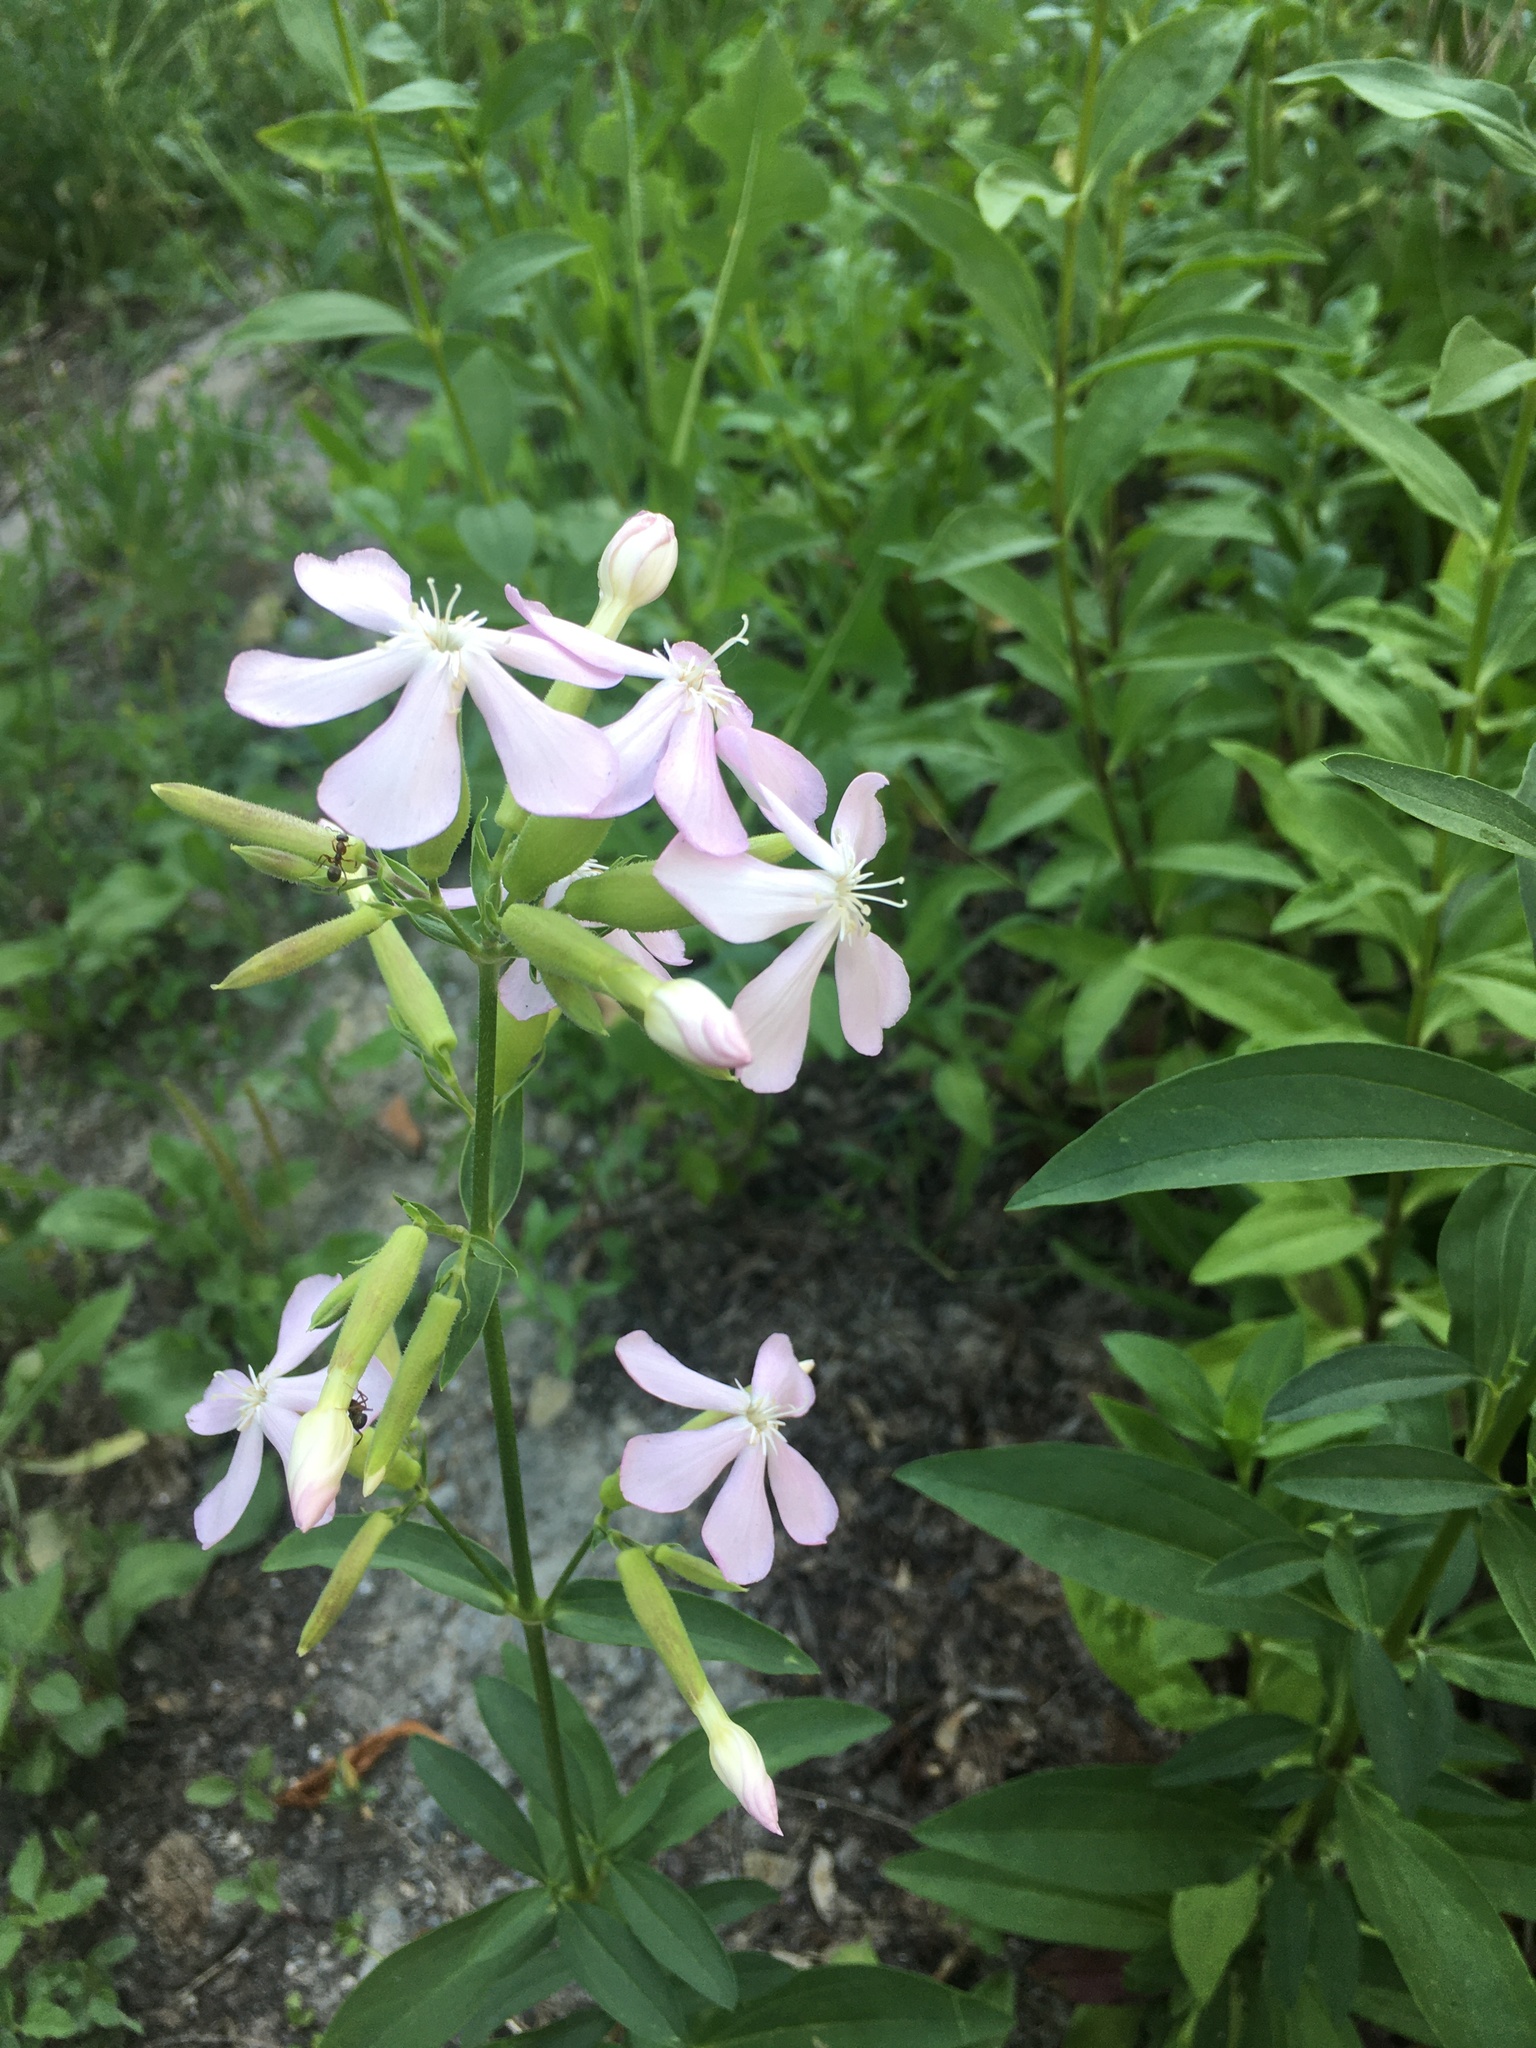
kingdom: Plantae
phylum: Tracheophyta
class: Magnoliopsida
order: Caryophyllales
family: Caryophyllaceae
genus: Saponaria
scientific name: Saponaria officinalis
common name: Soapwort
